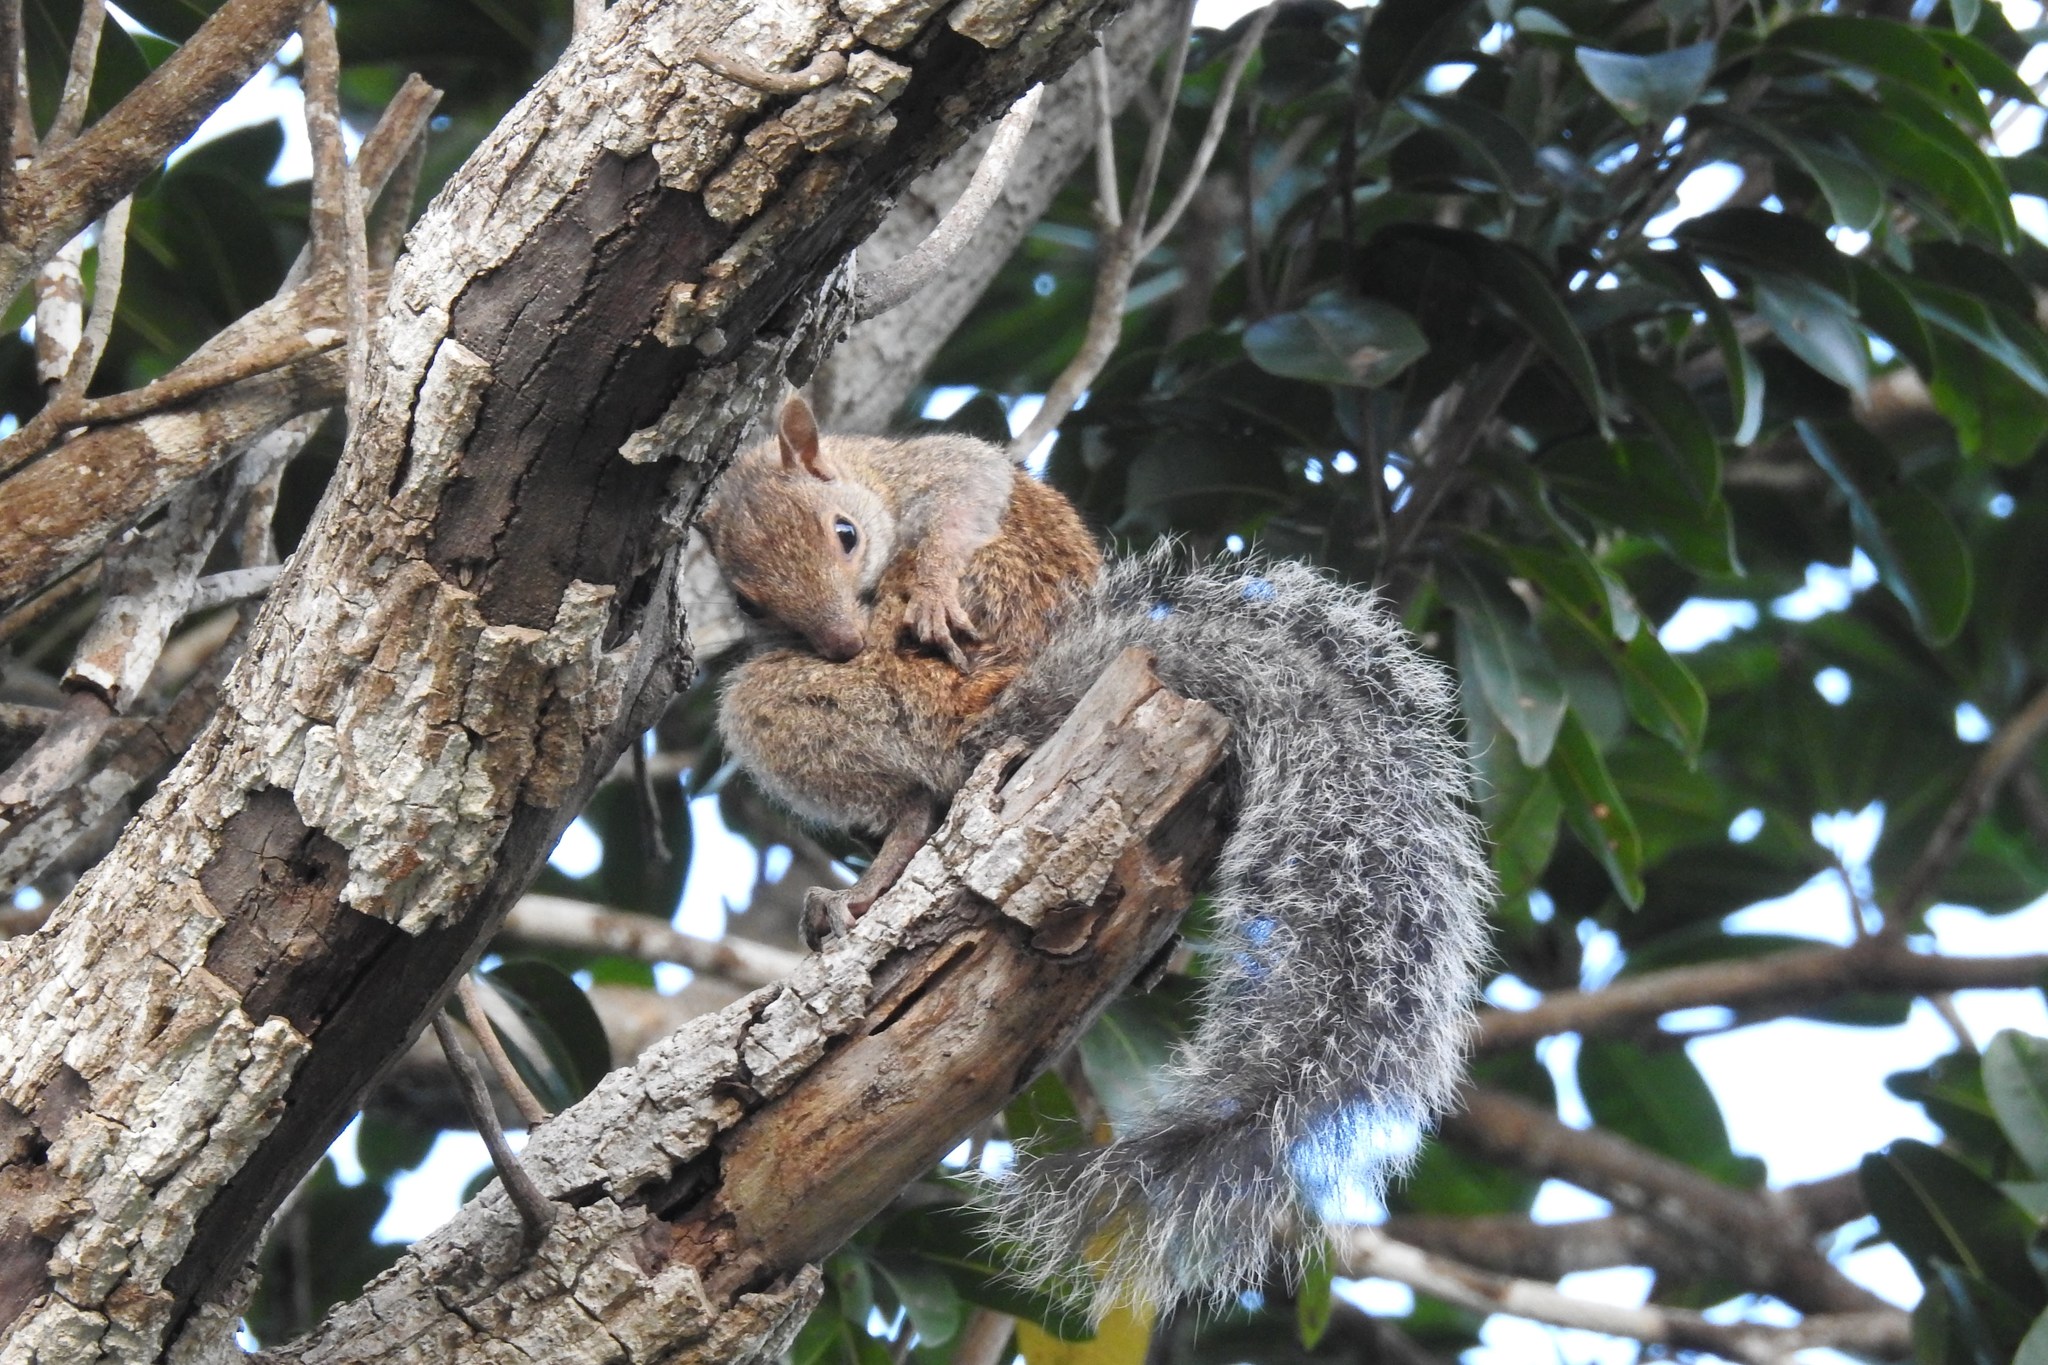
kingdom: Animalia
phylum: Chordata
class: Mammalia
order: Rodentia
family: Sciuridae
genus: Sciurus
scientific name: Sciurus yucatanensis
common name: Yucatan squirrel
